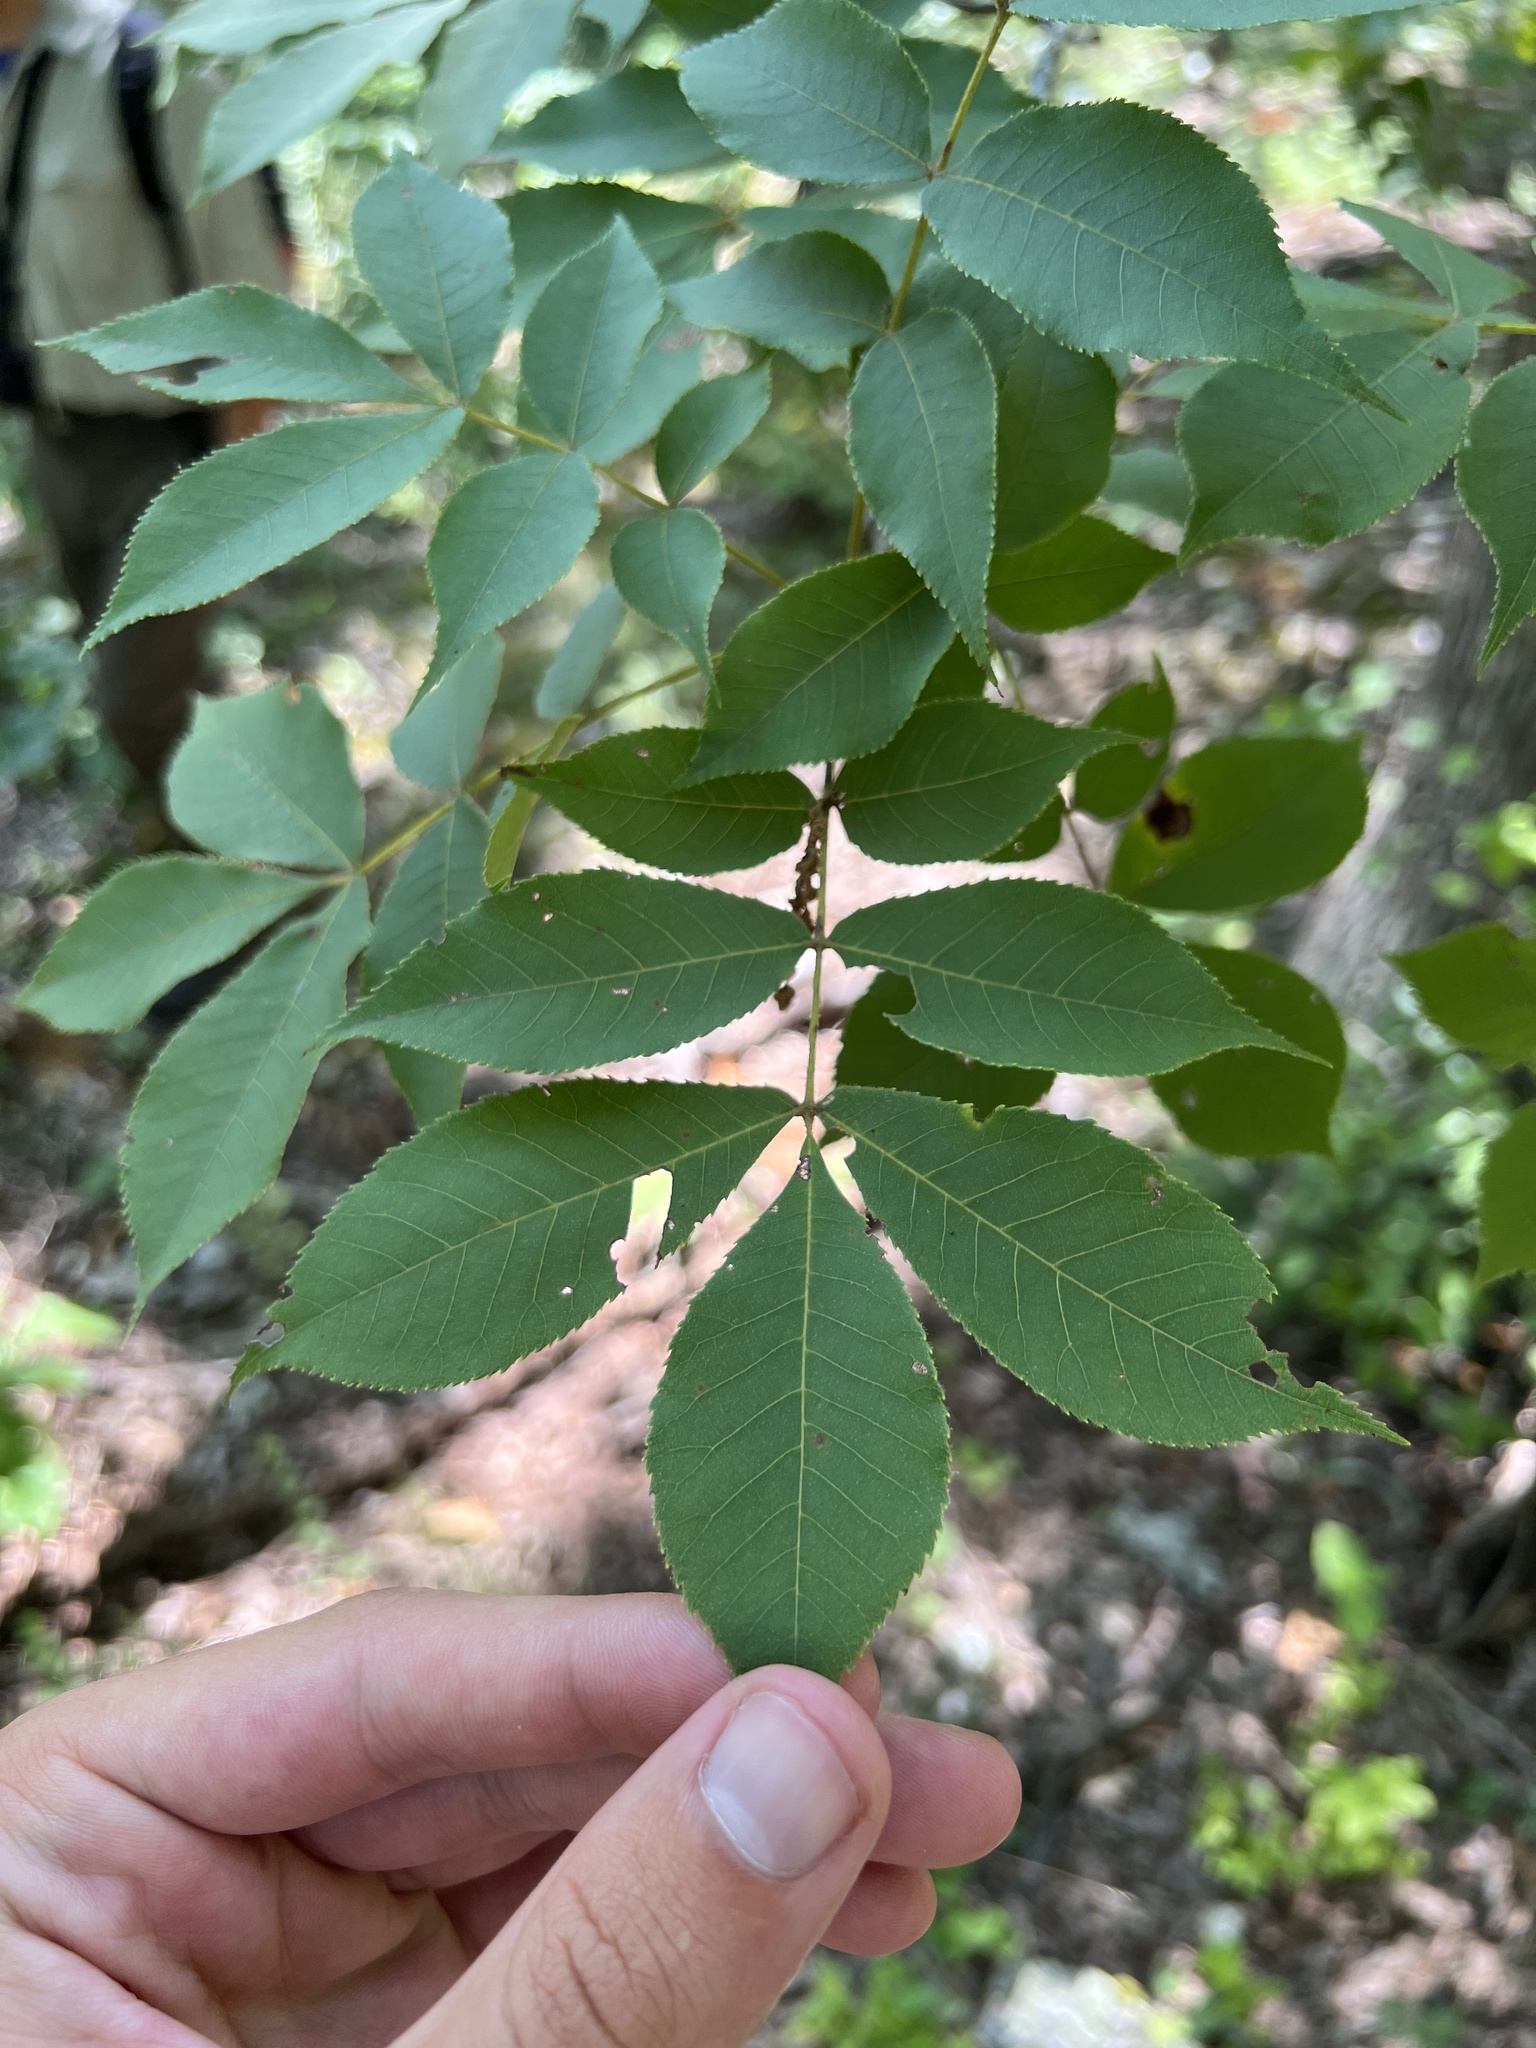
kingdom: Plantae
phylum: Tracheophyta
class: Magnoliopsida
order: Fagales
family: Juglandaceae
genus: Carya
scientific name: Carya texana
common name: Black hickory
